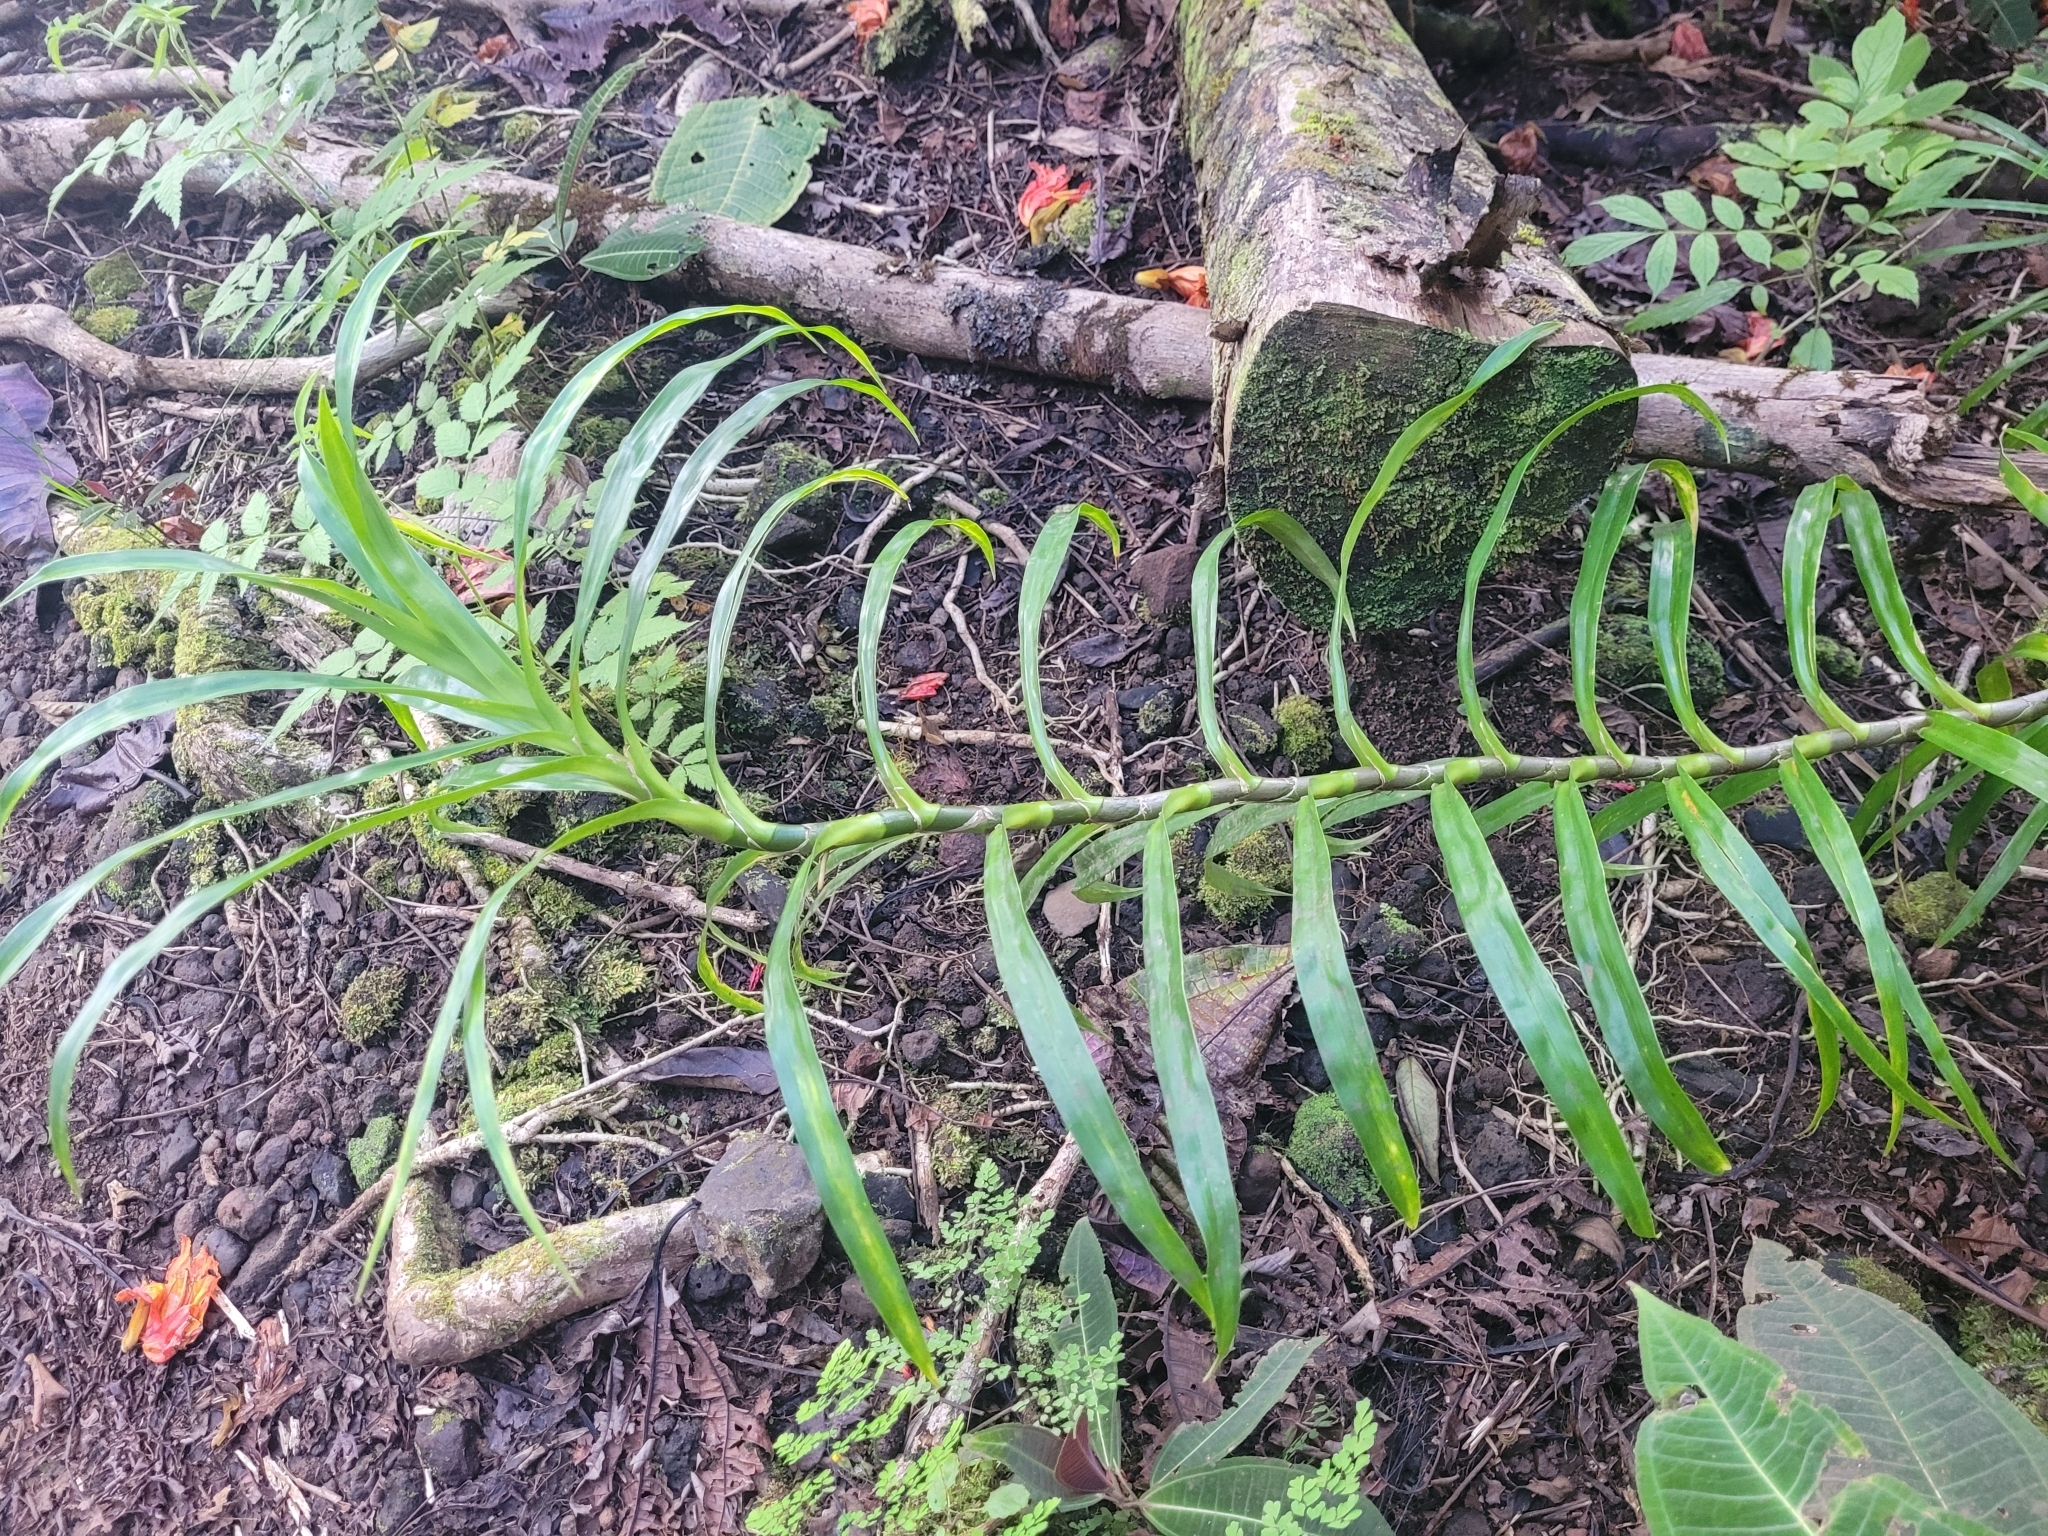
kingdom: Plantae
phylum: Tracheophyta
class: Liliopsida
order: Asparagales
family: Asparagaceae
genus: Dracaena
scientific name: Dracaena angustifolia
